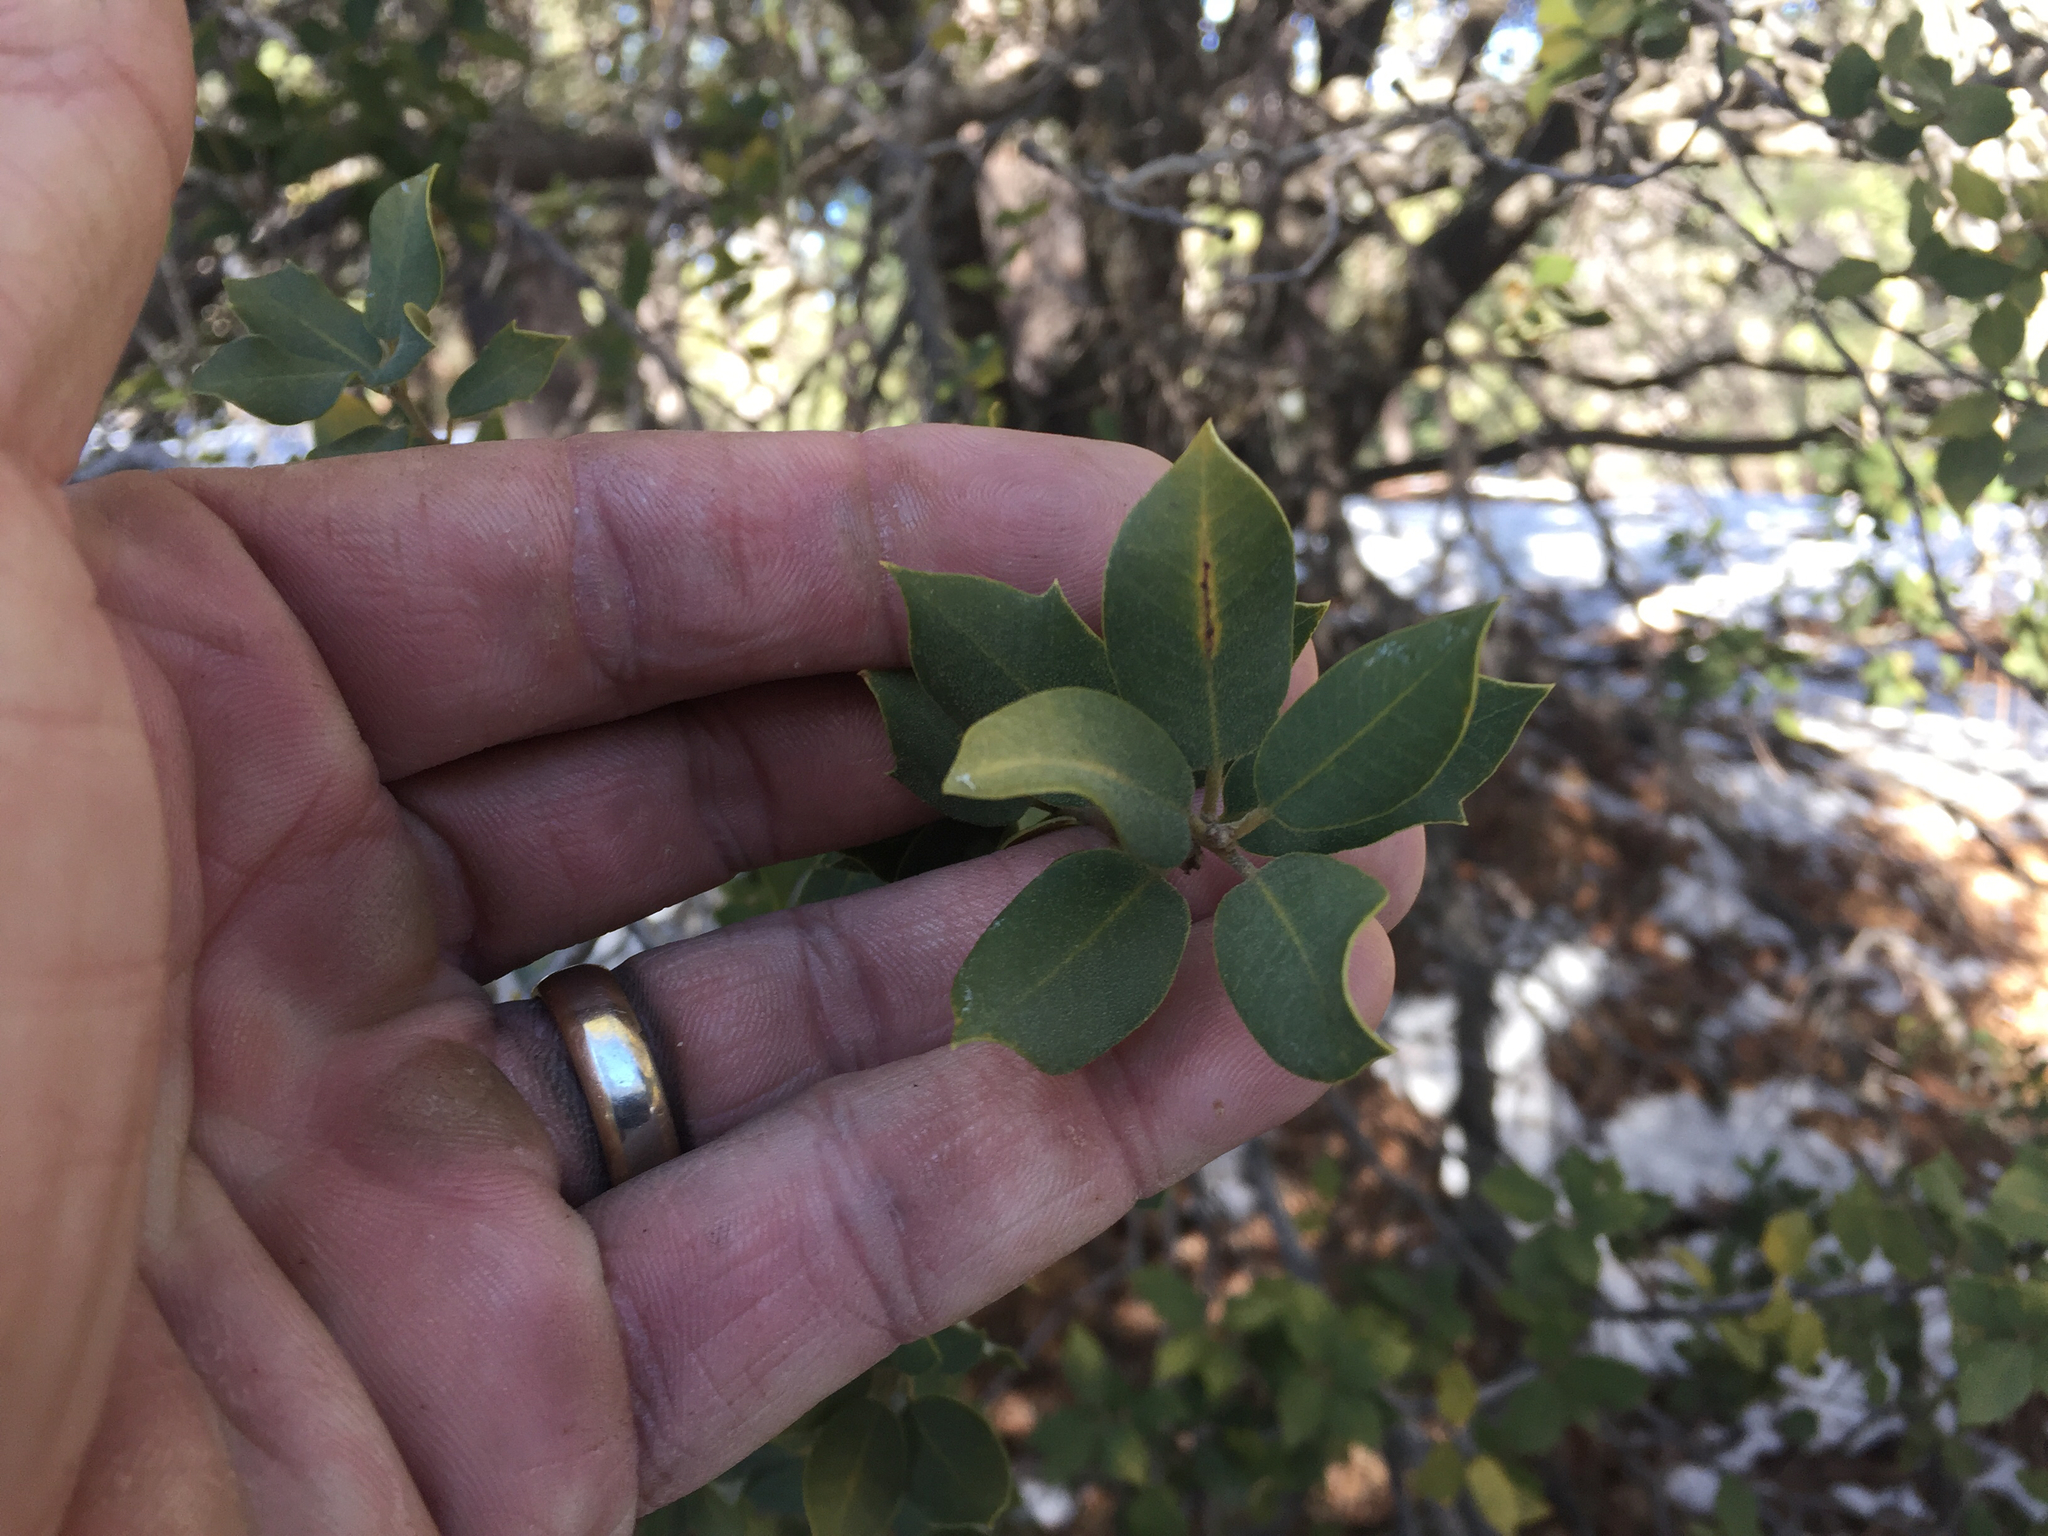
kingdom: Plantae
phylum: Tracheophyta
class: Magnoliopsida
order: Fagales
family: Fagaceae
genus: Quercus
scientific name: Quercus chrysolepis
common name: Canyon live oak
